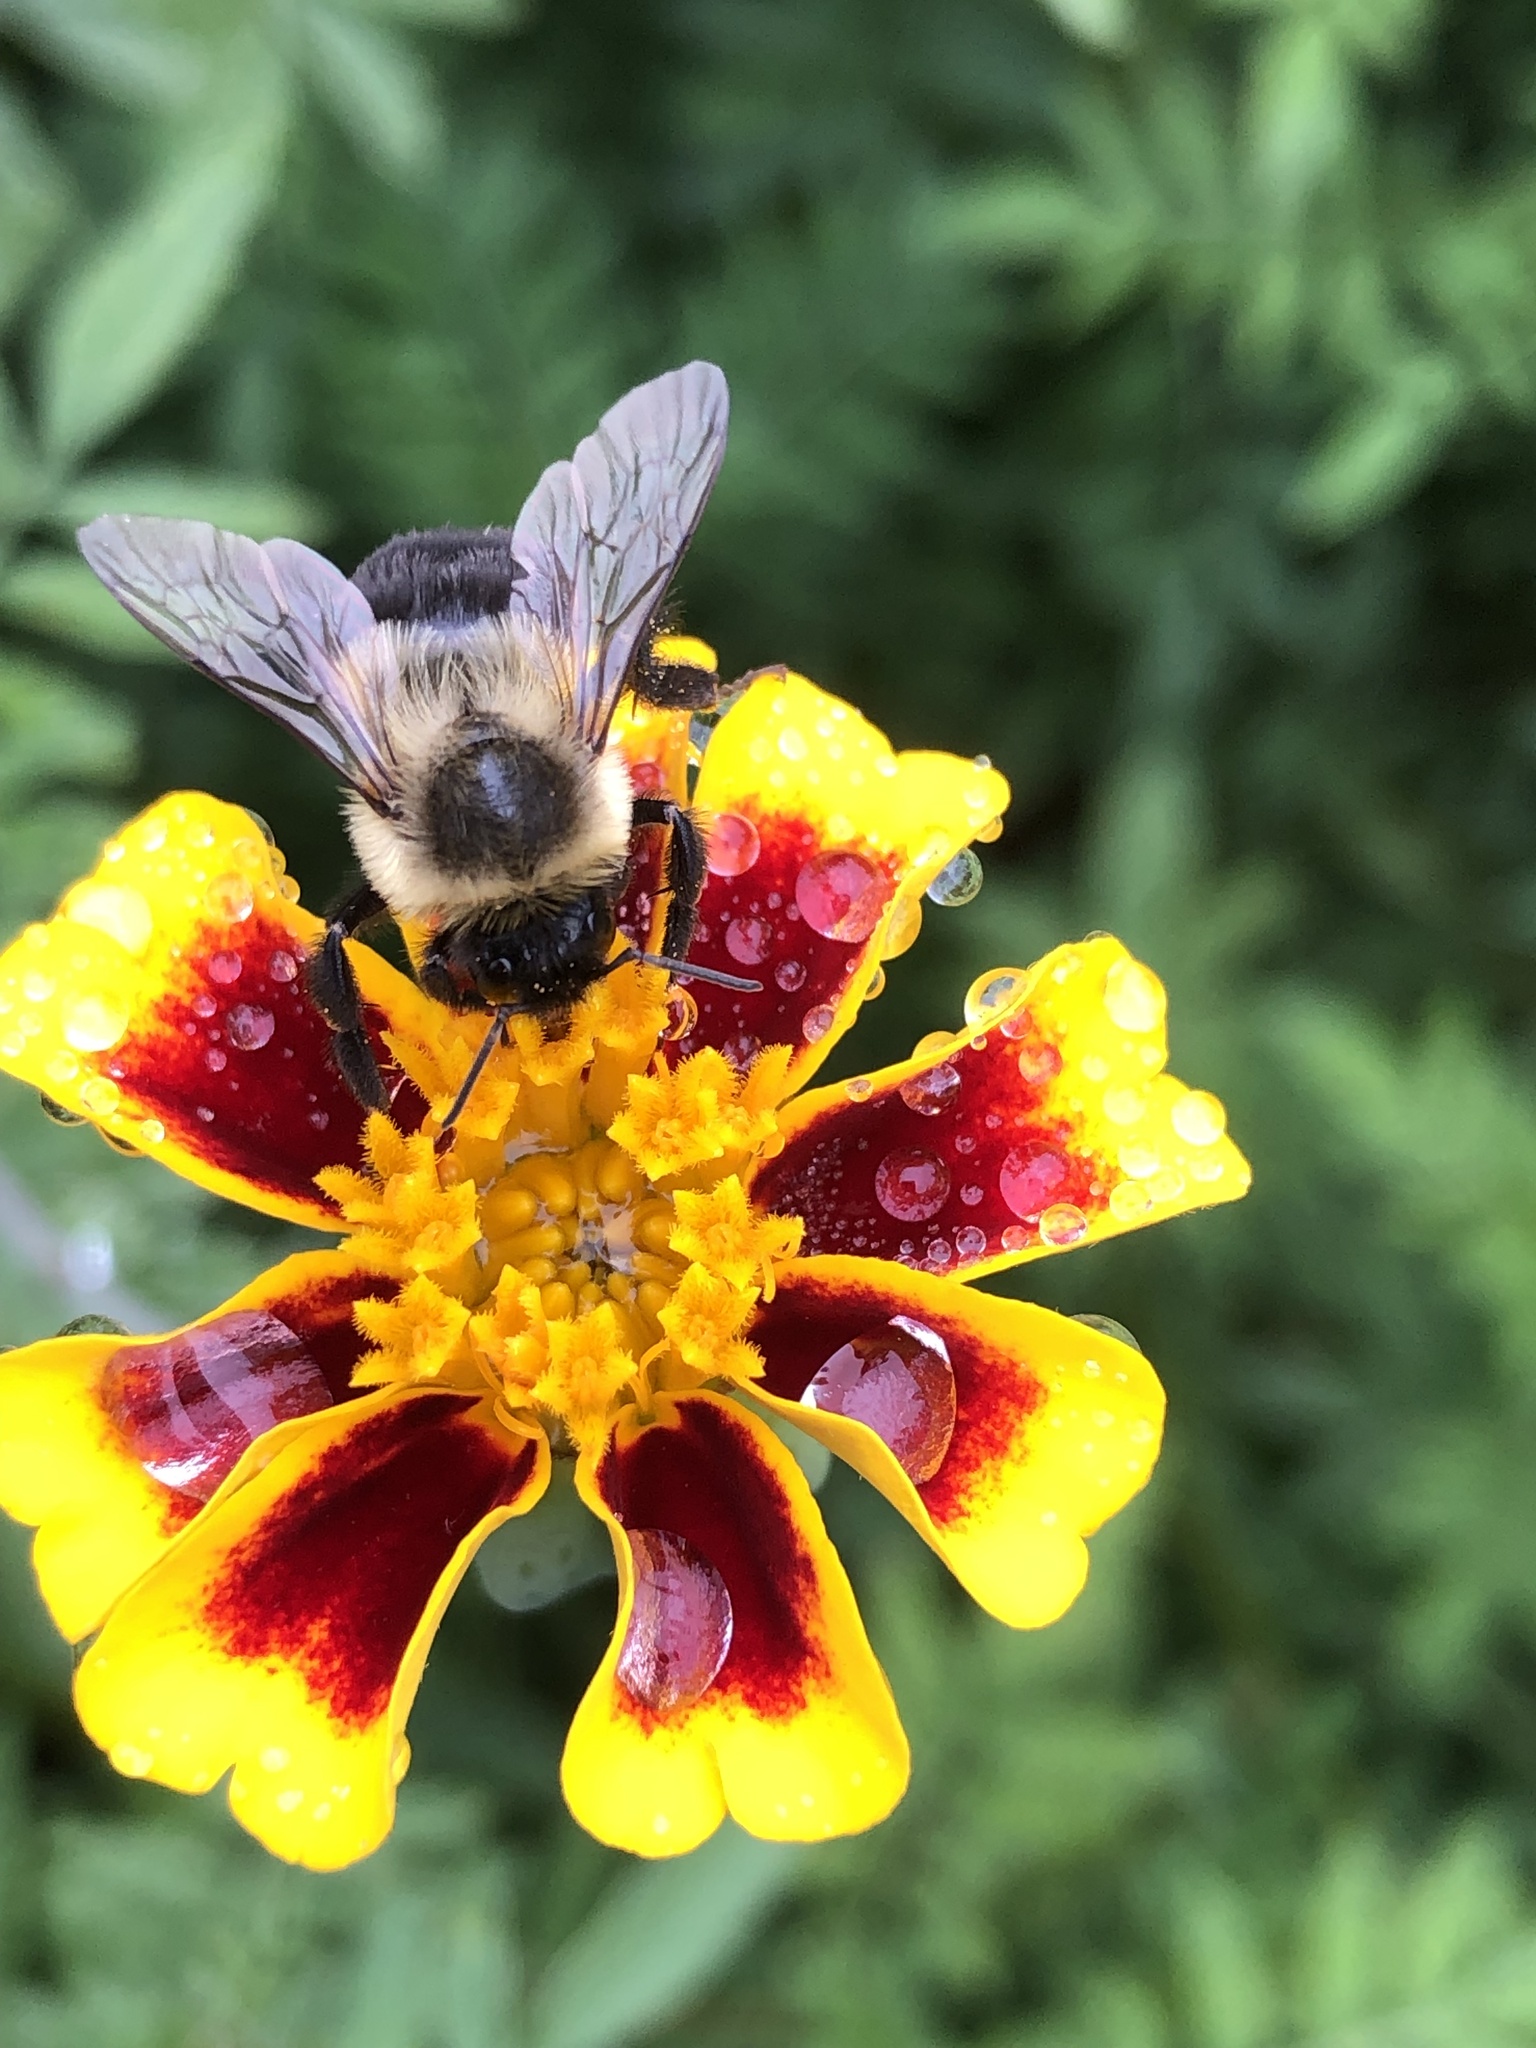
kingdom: Animalia
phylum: Arthropoda
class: Insecta
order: Hymenoptera
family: Apidae
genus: Bombus
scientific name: Bombus impatiens
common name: Common eastern bumble bee
